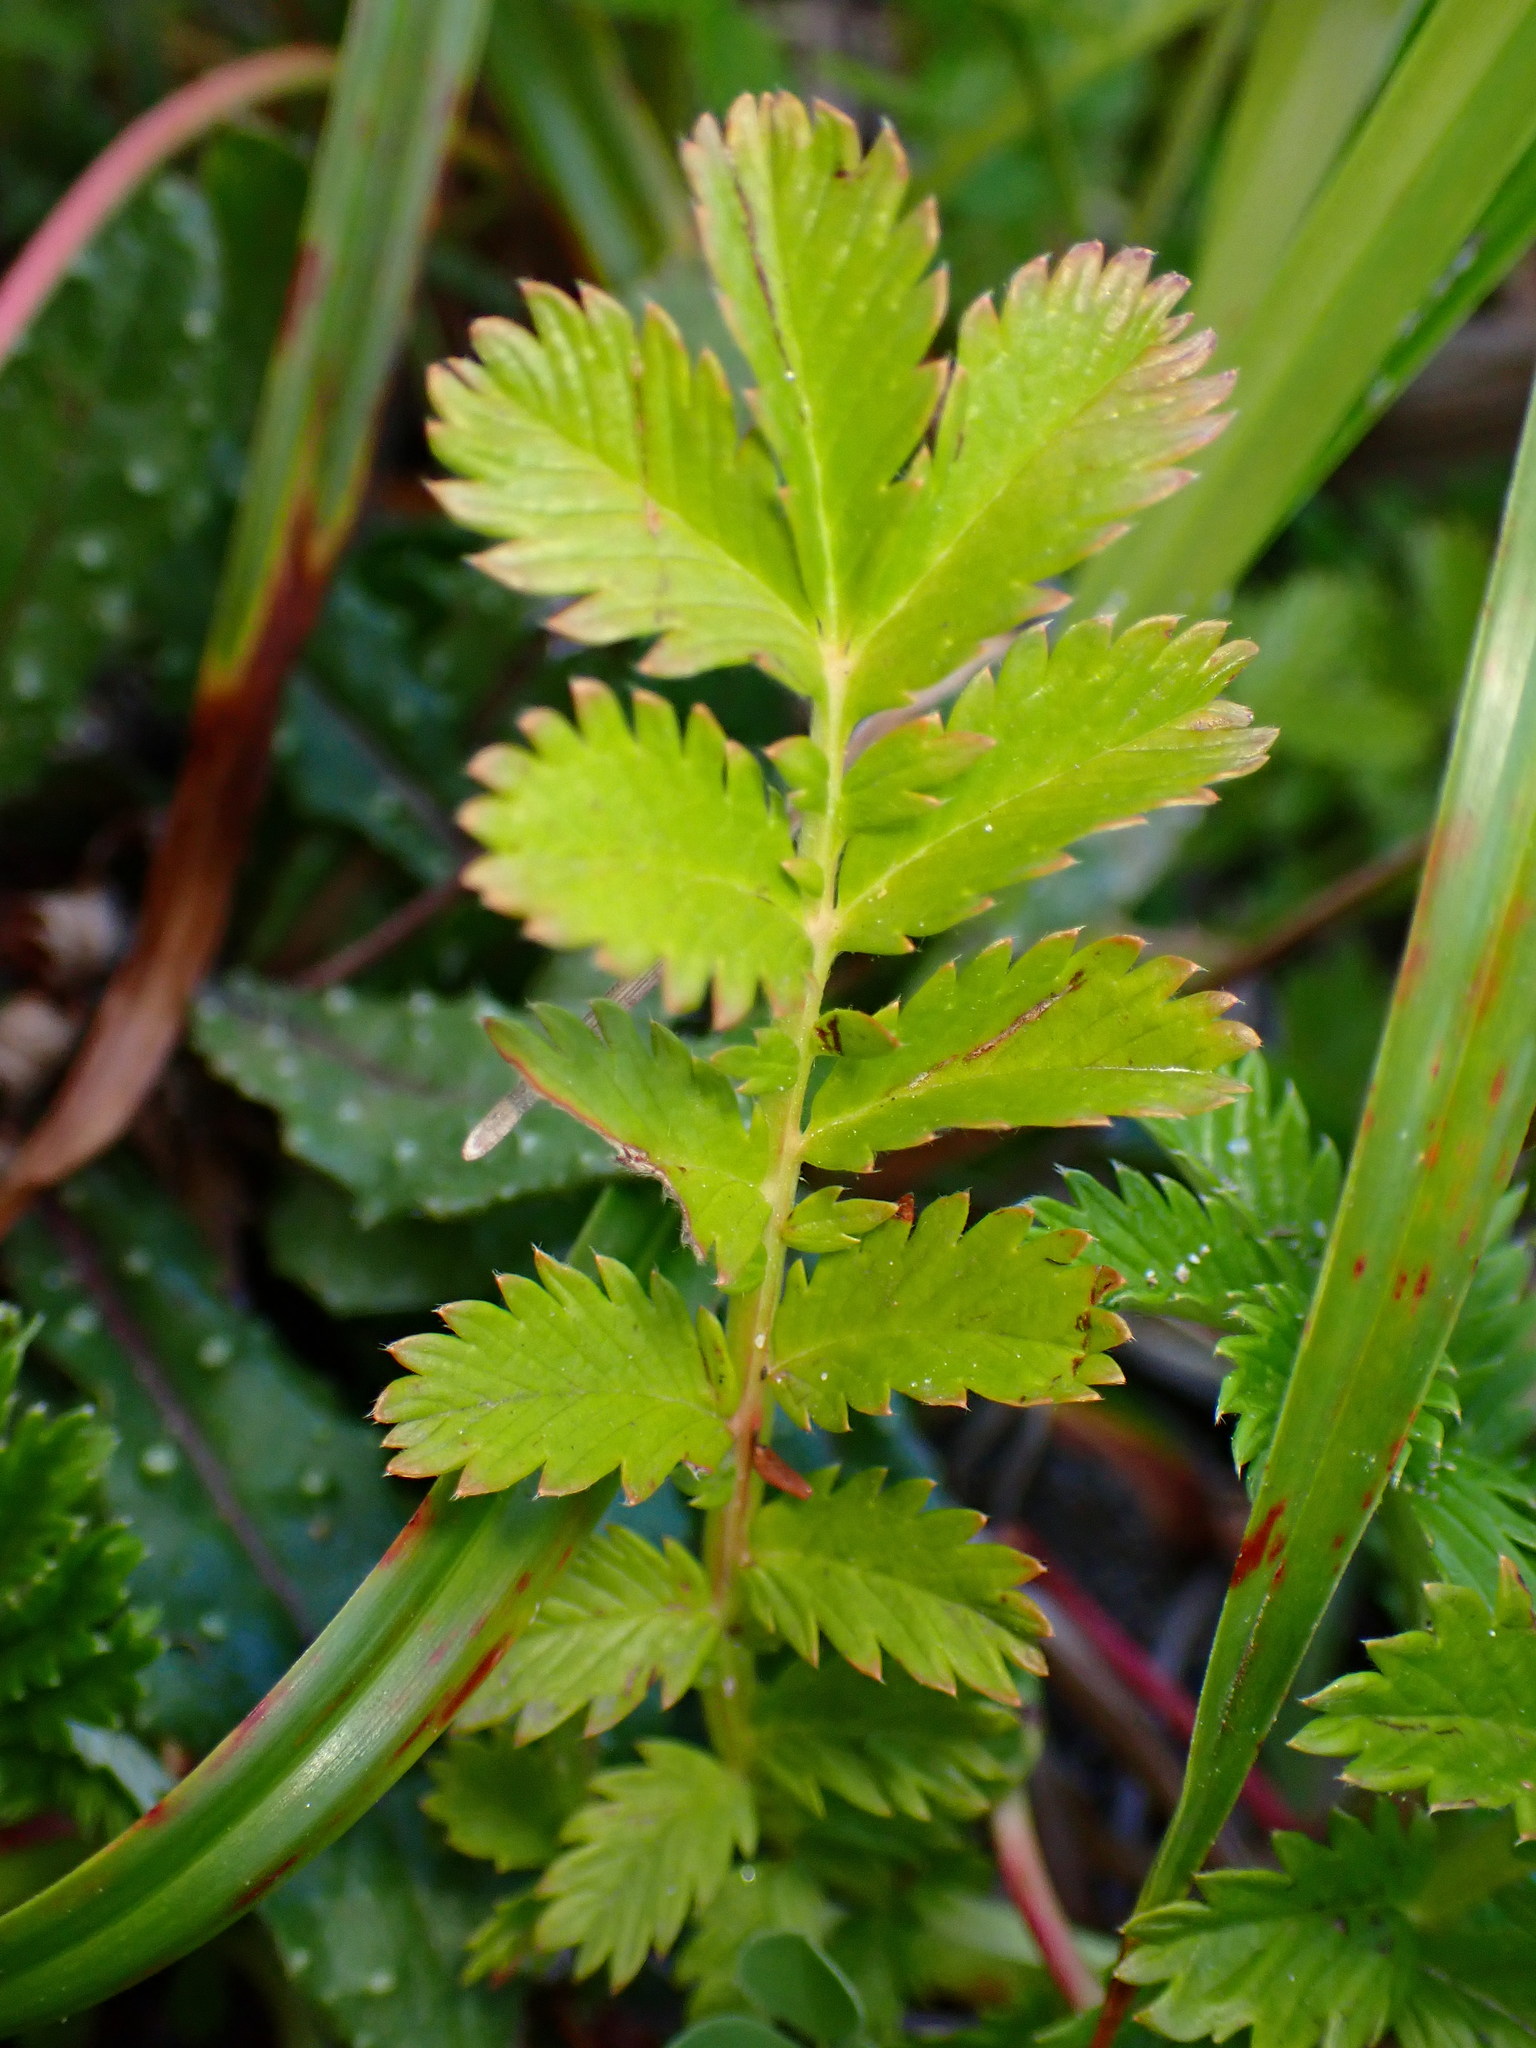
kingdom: Plantae
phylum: Tracheophyta
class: Magnoliopsida
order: Rosales
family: Rosaceae
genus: Argentina
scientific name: Argentina anserina
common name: Common silverweed
